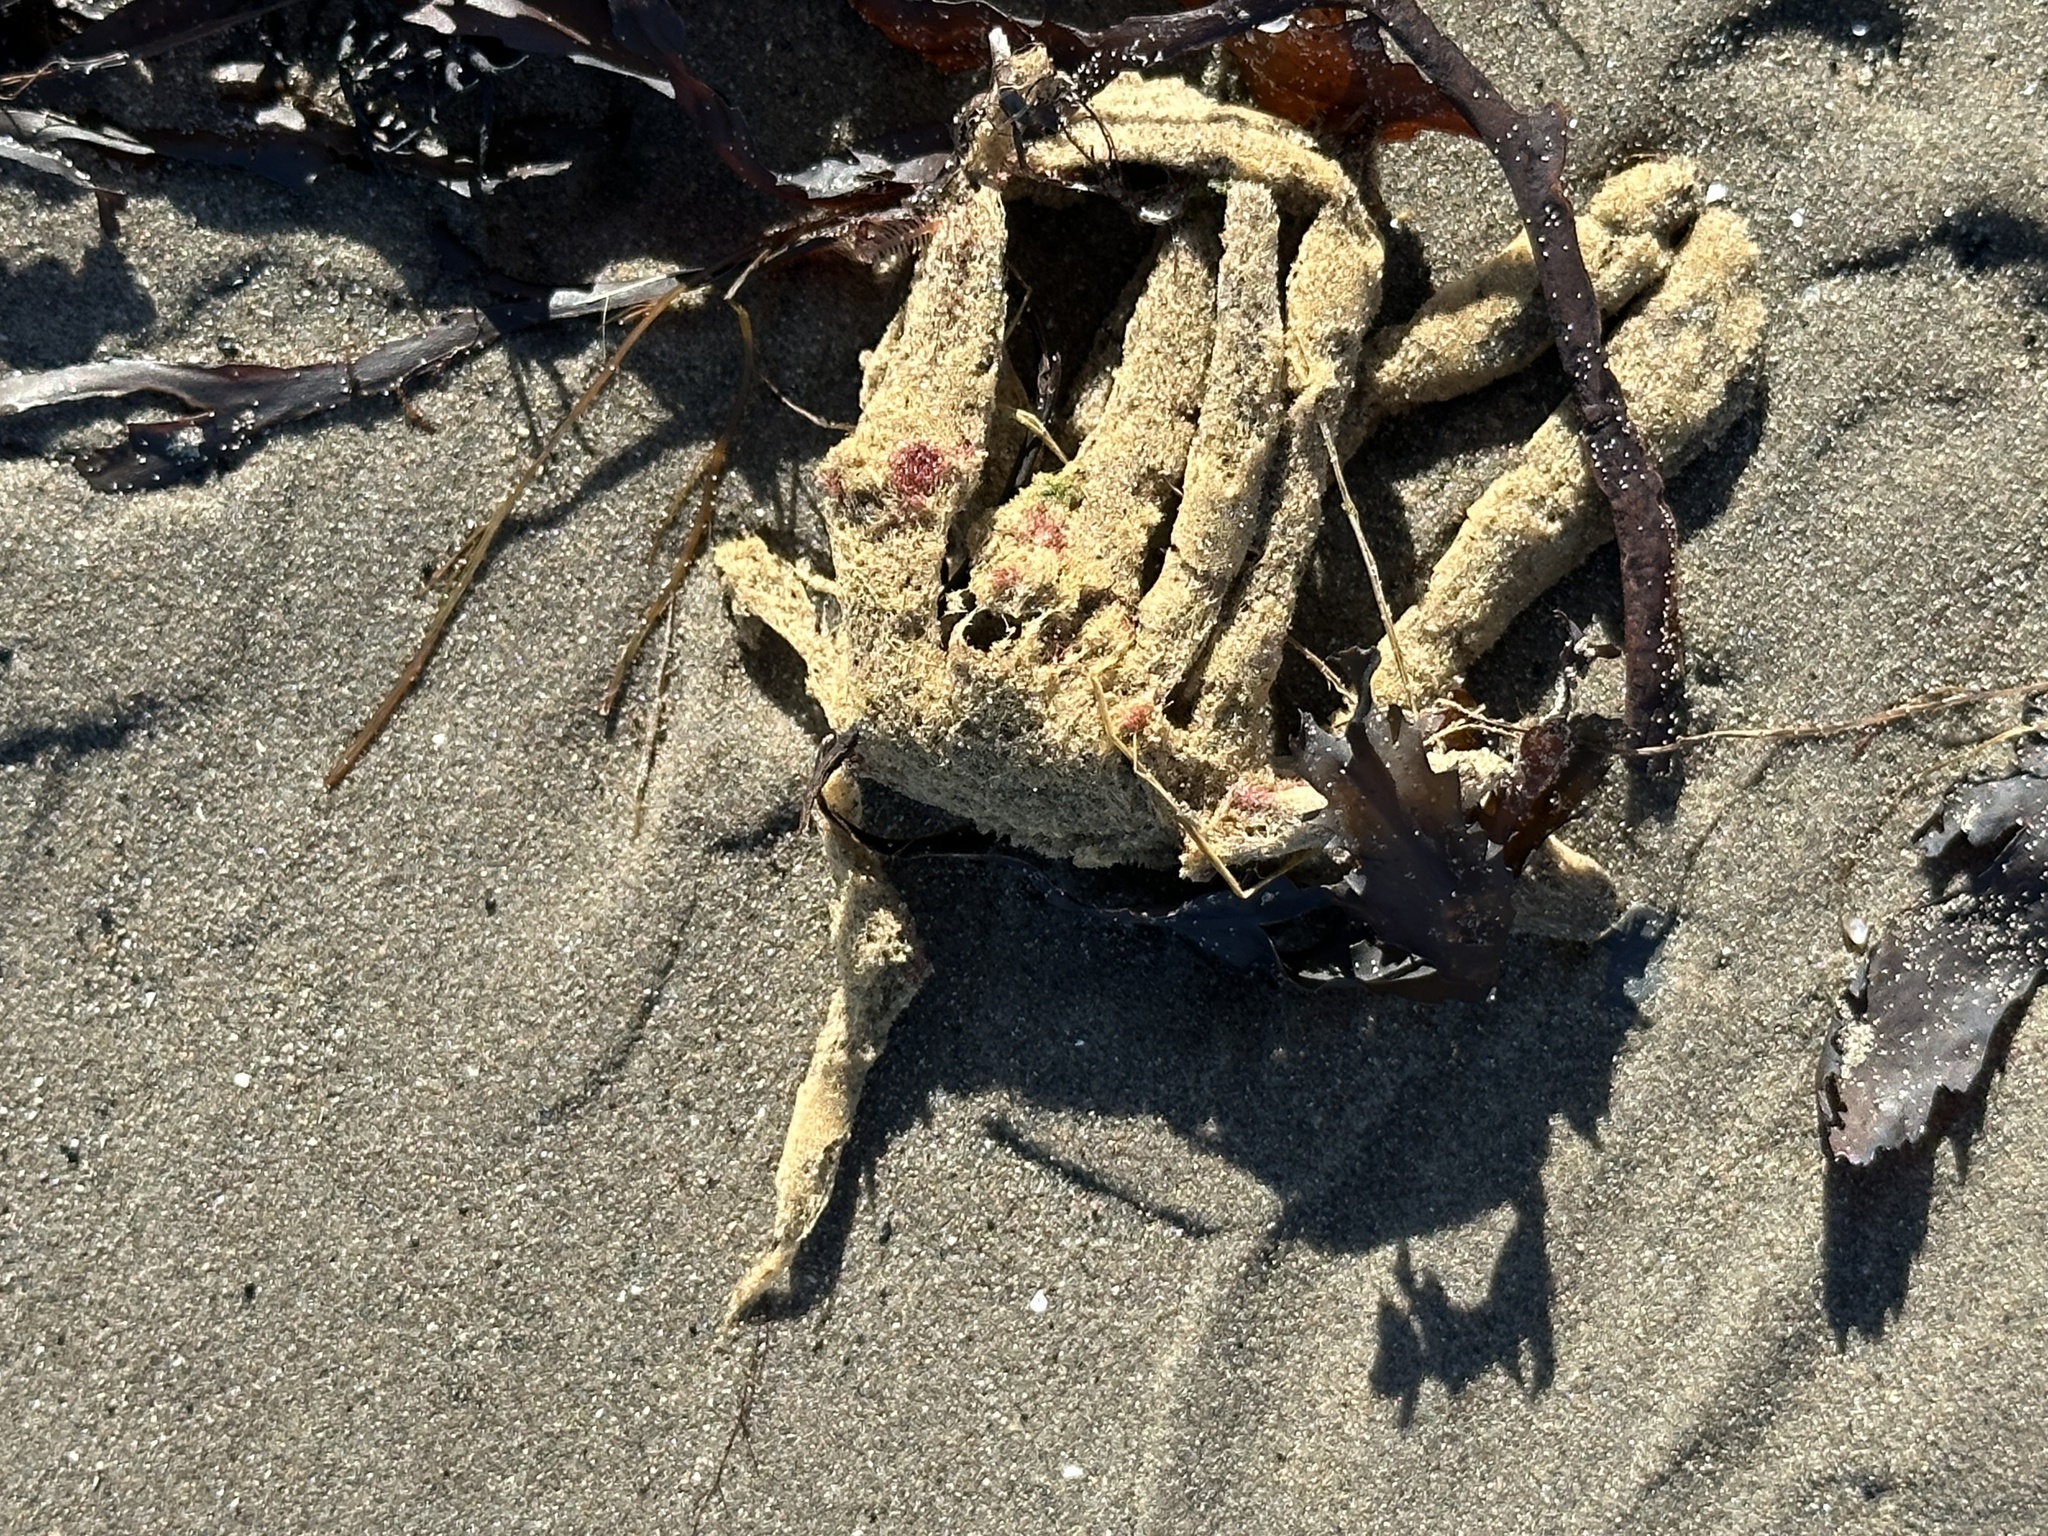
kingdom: Animalia
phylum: Porifera
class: Demospongiae
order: Haplosclerida
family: Chalinidae
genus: Haliclona
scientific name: Haliclona oculata
